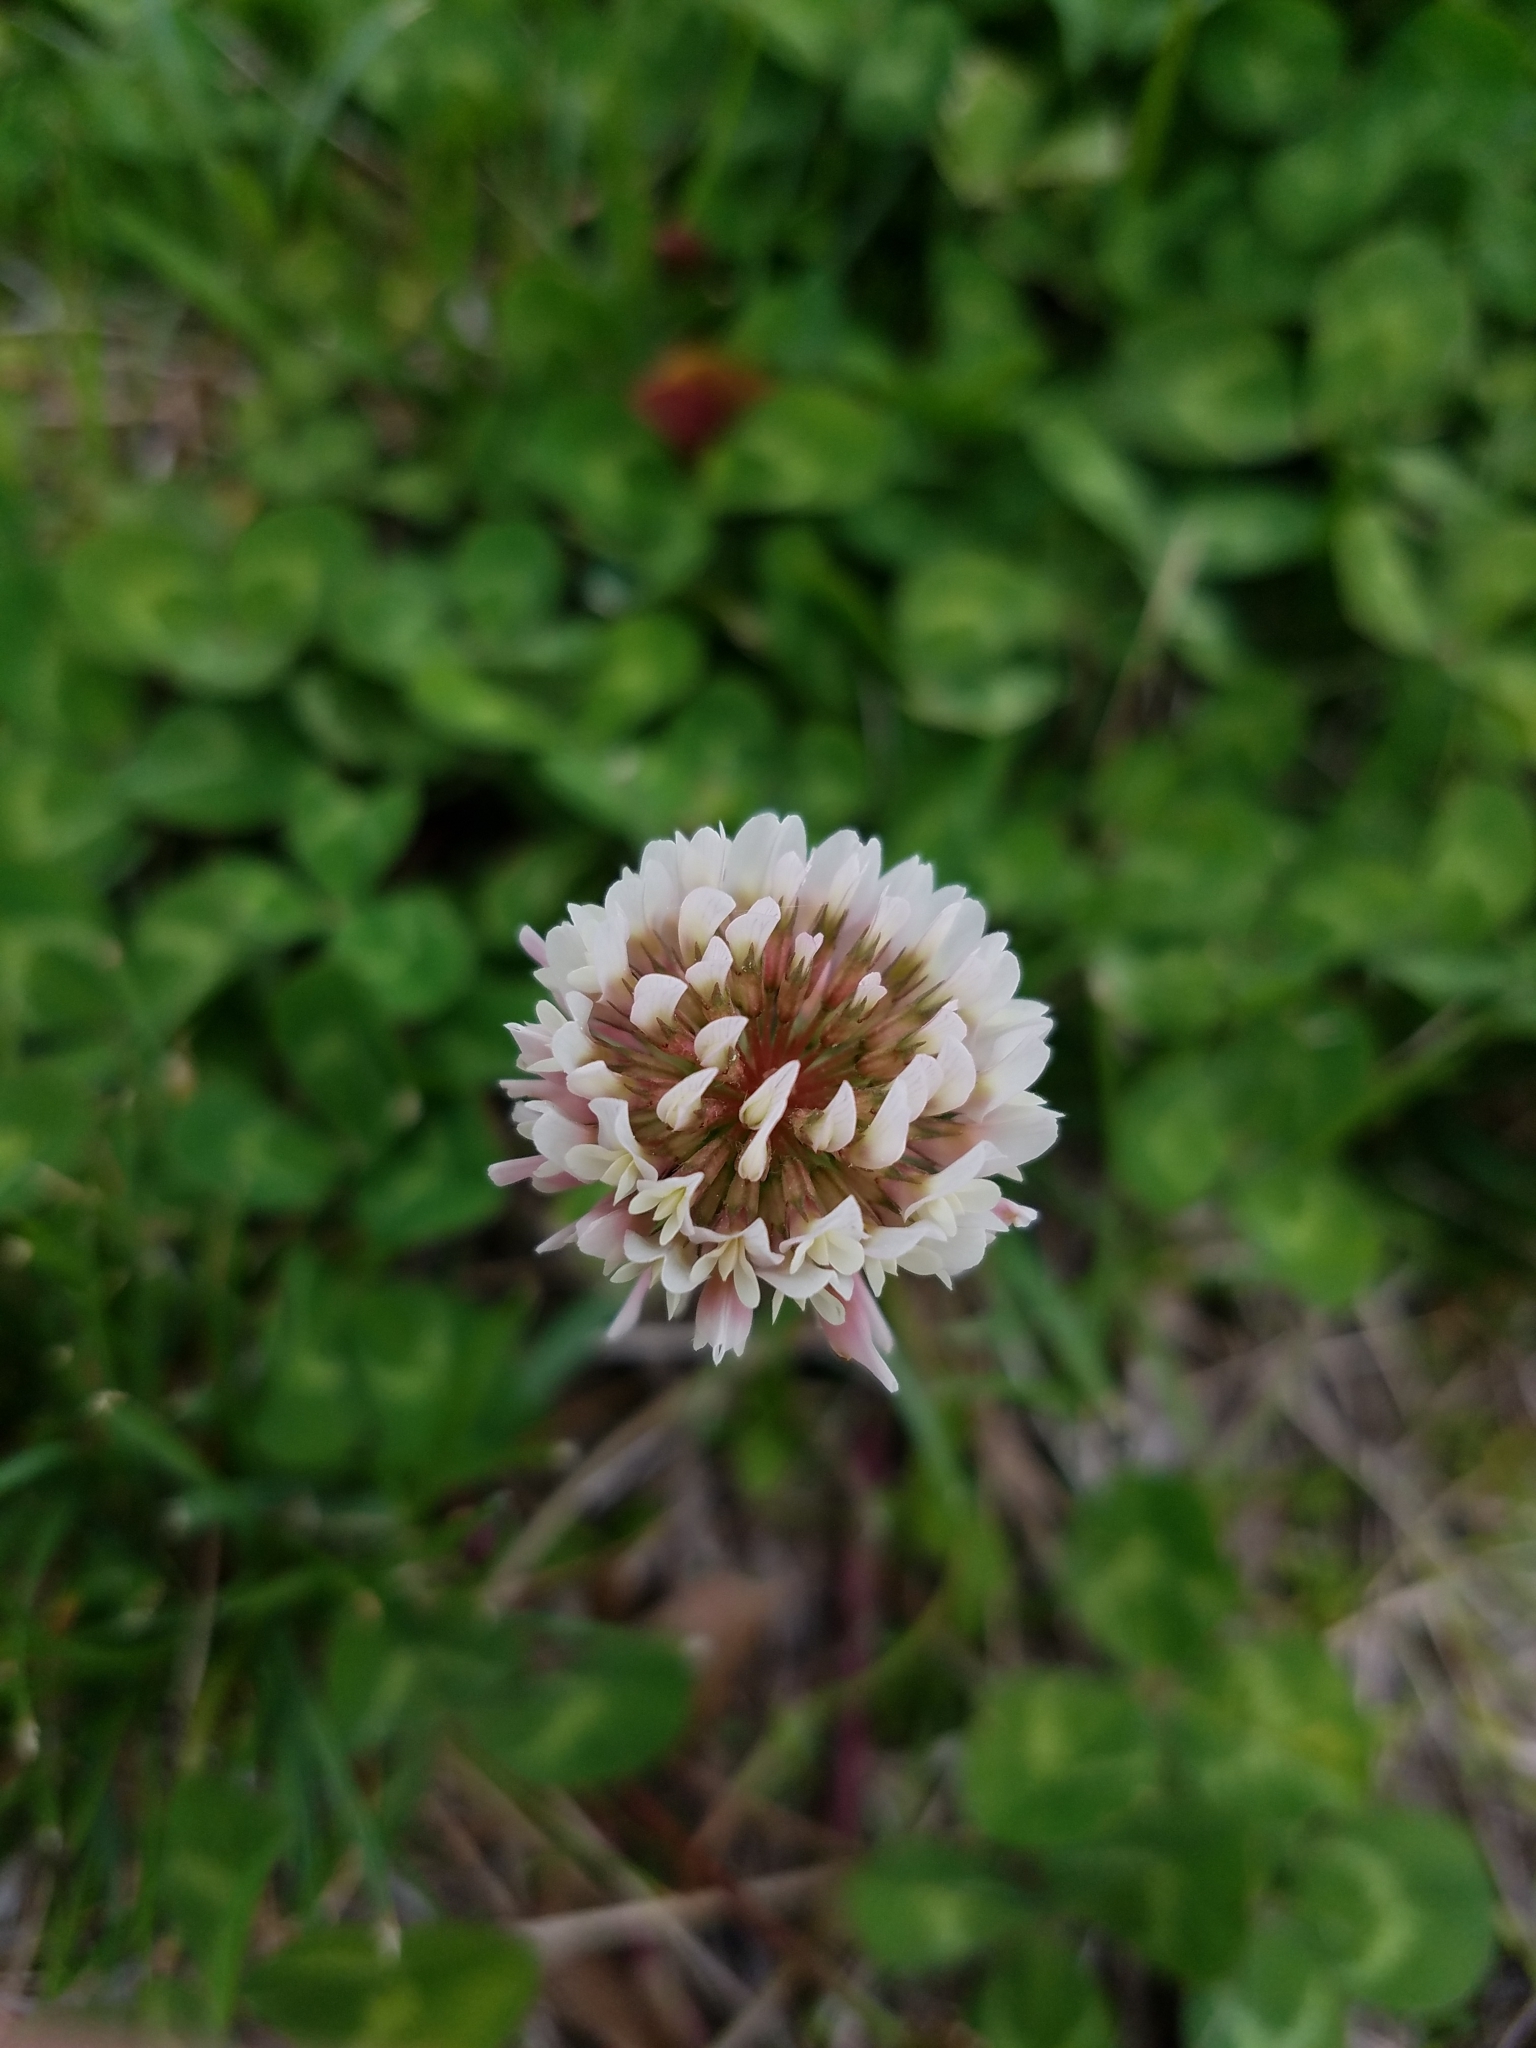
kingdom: Plantae
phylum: Tracheophyta
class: Magnoliopsida
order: Fabales
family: Fabaceae
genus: Trifolium
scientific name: Trifolium repens
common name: White clover
